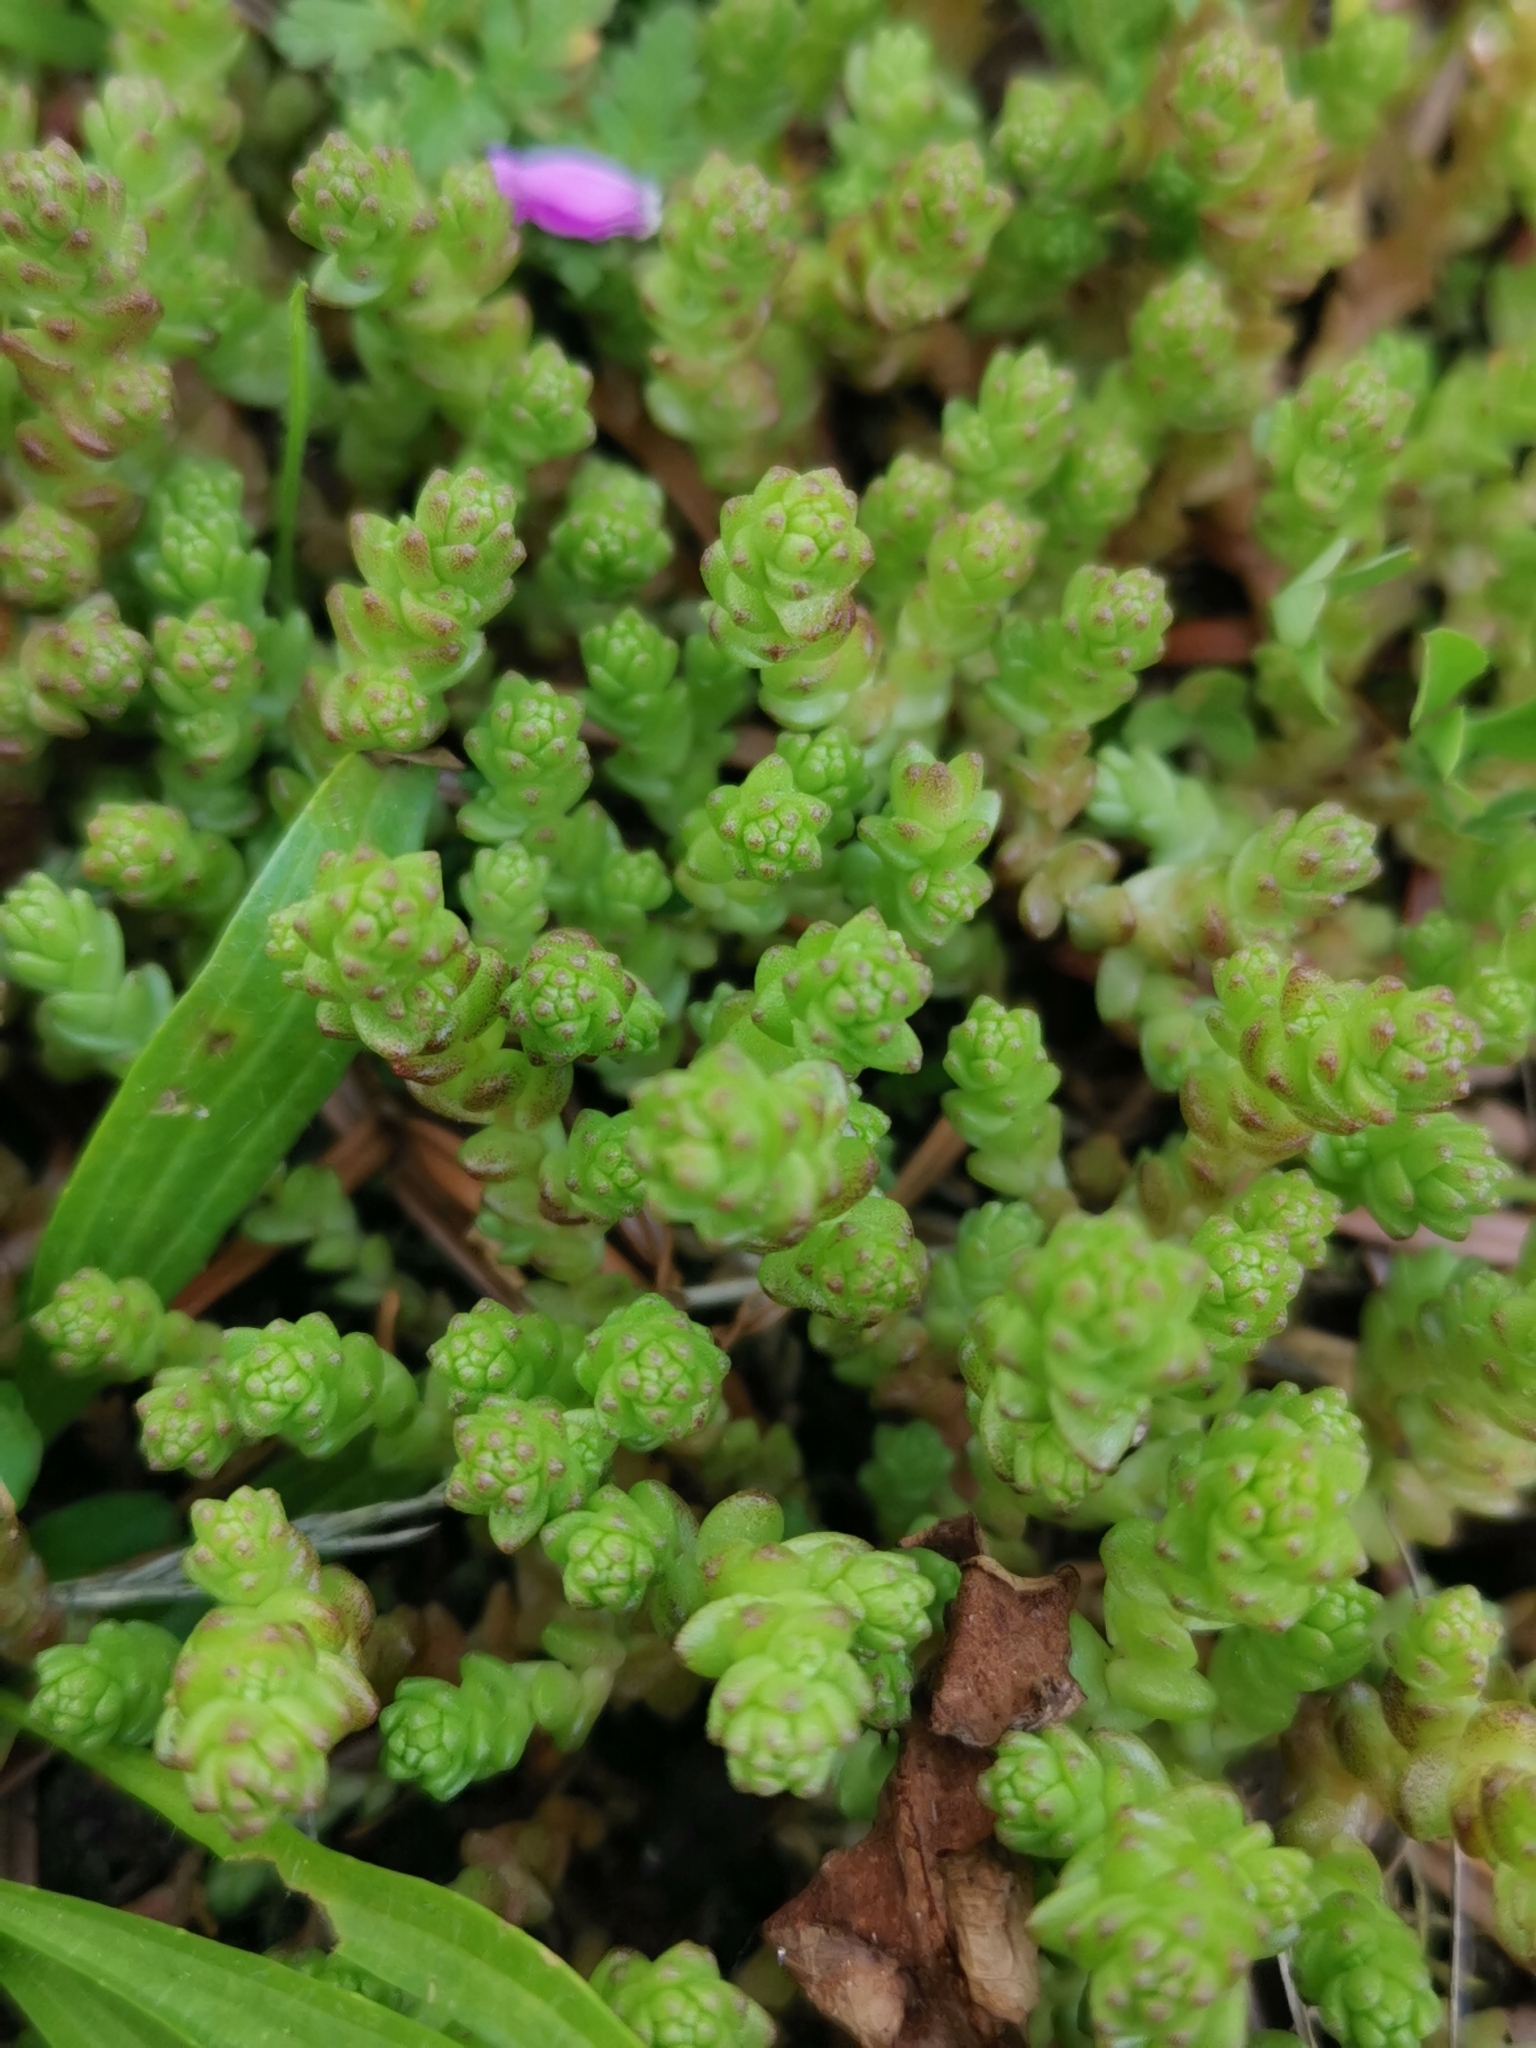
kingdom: Plantae
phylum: Tracheophyta
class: Magnoliopsida
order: Saxifragales
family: Crassulaceae
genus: Sedum
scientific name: Sedum acre
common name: Biting stonecrop
